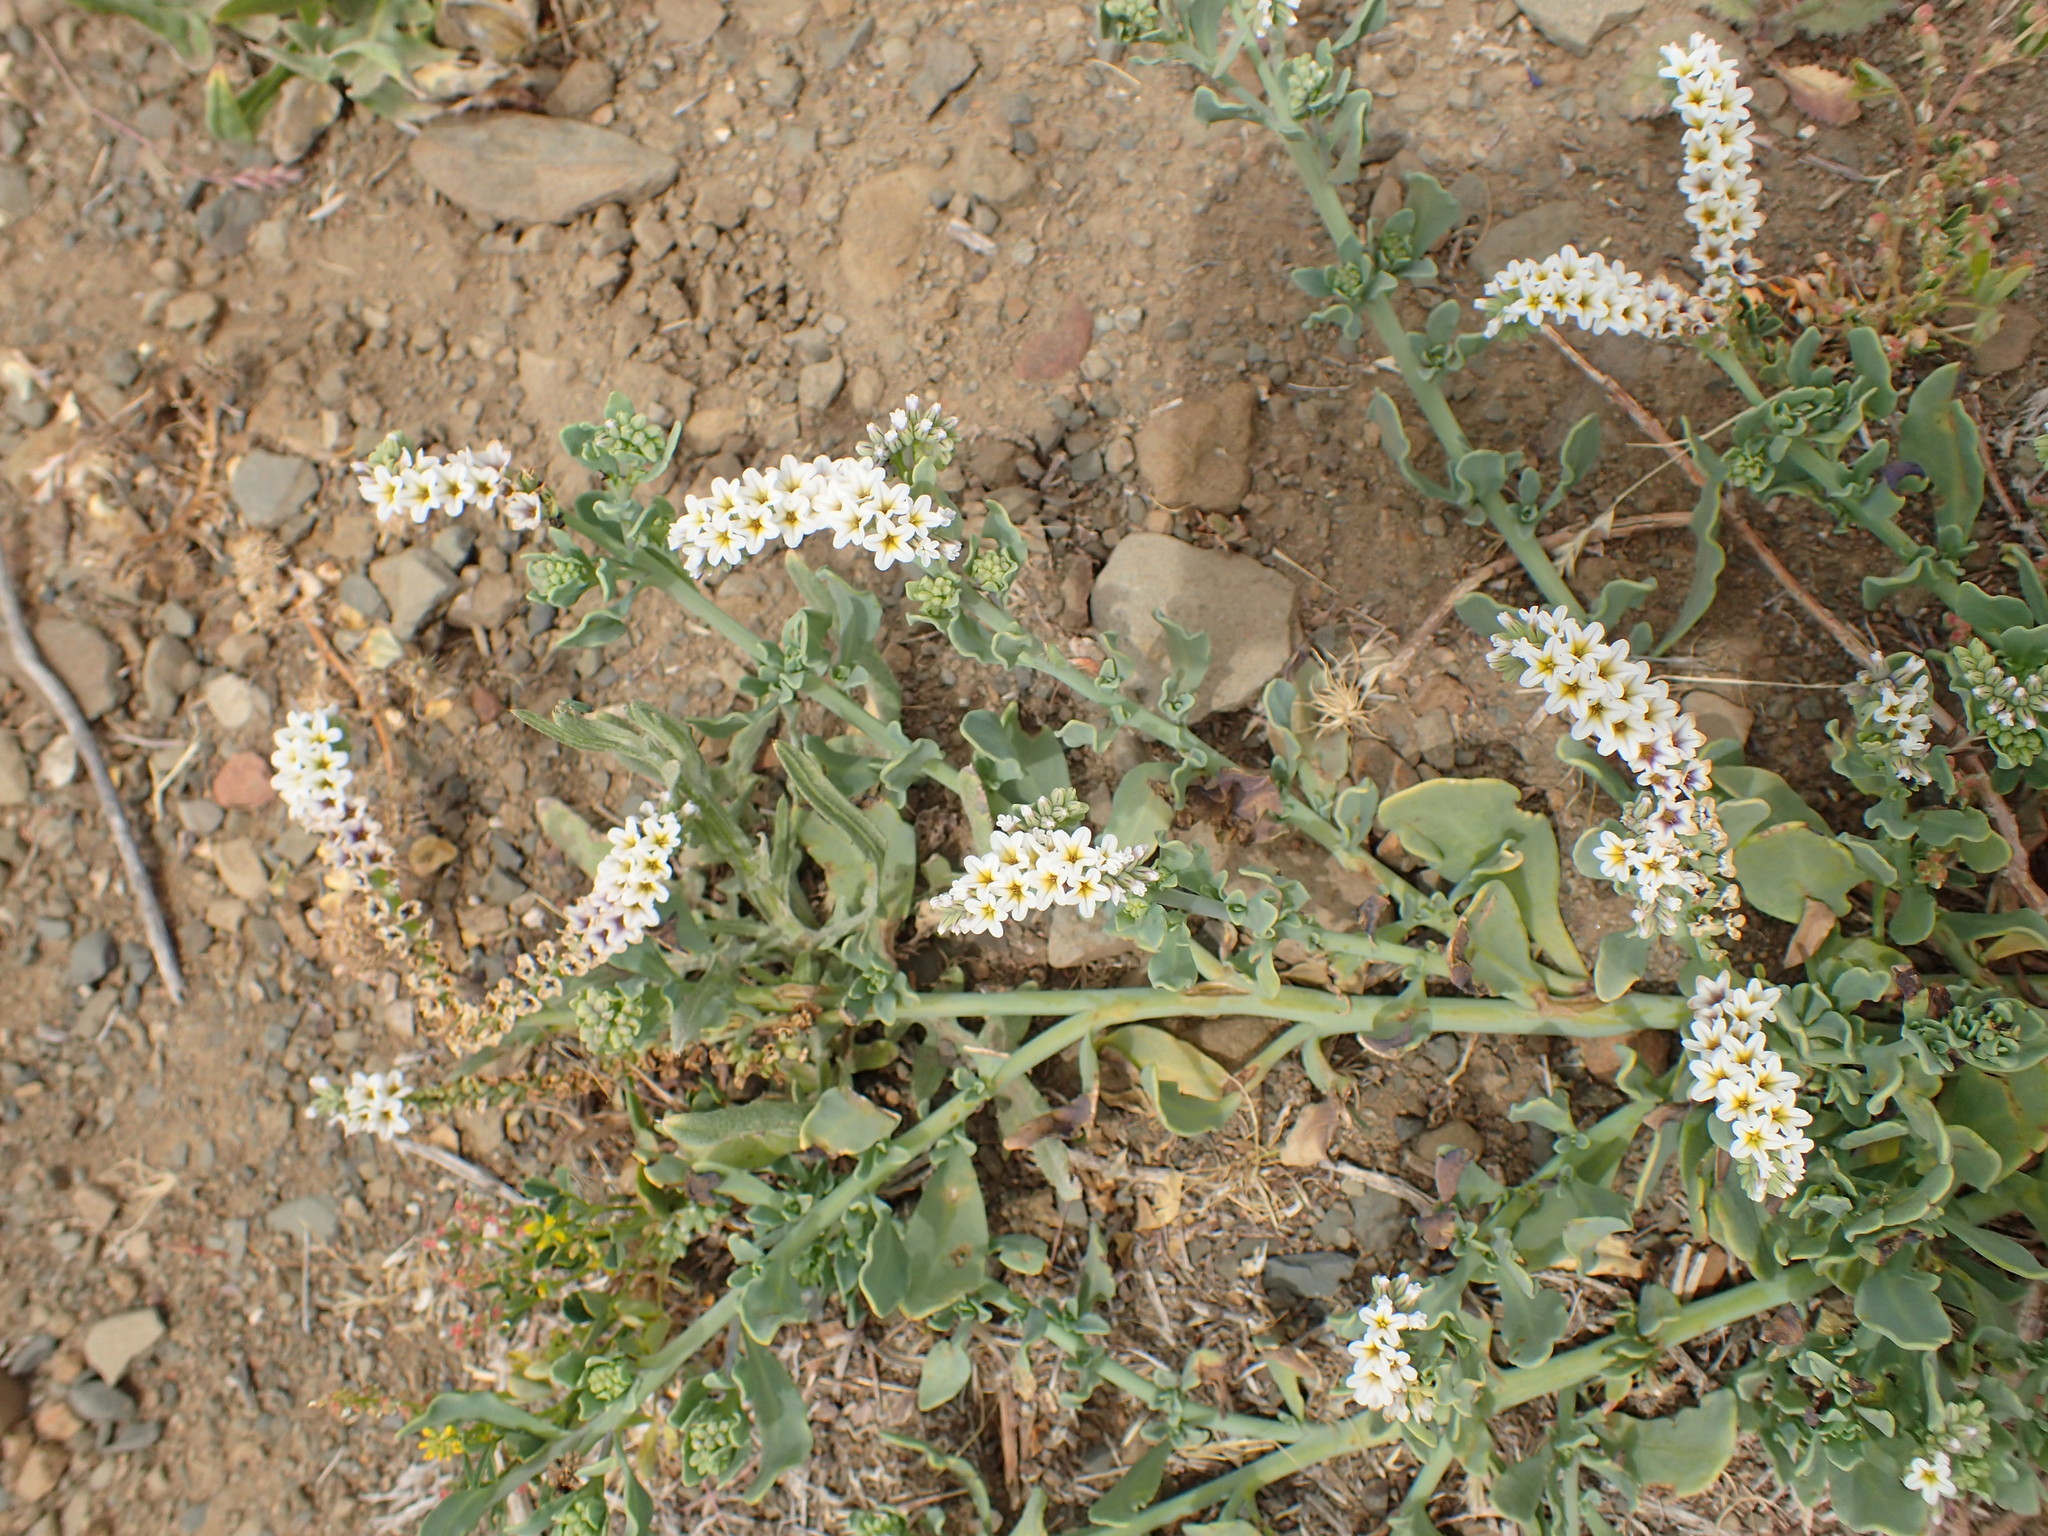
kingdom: Plantae
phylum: Tracheophyta
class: Magnoliopsida
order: Boraginales
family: Heliotropiaceae
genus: Heliotropium
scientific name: Heliotropium curassavicum
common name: Seaside heliotrope
